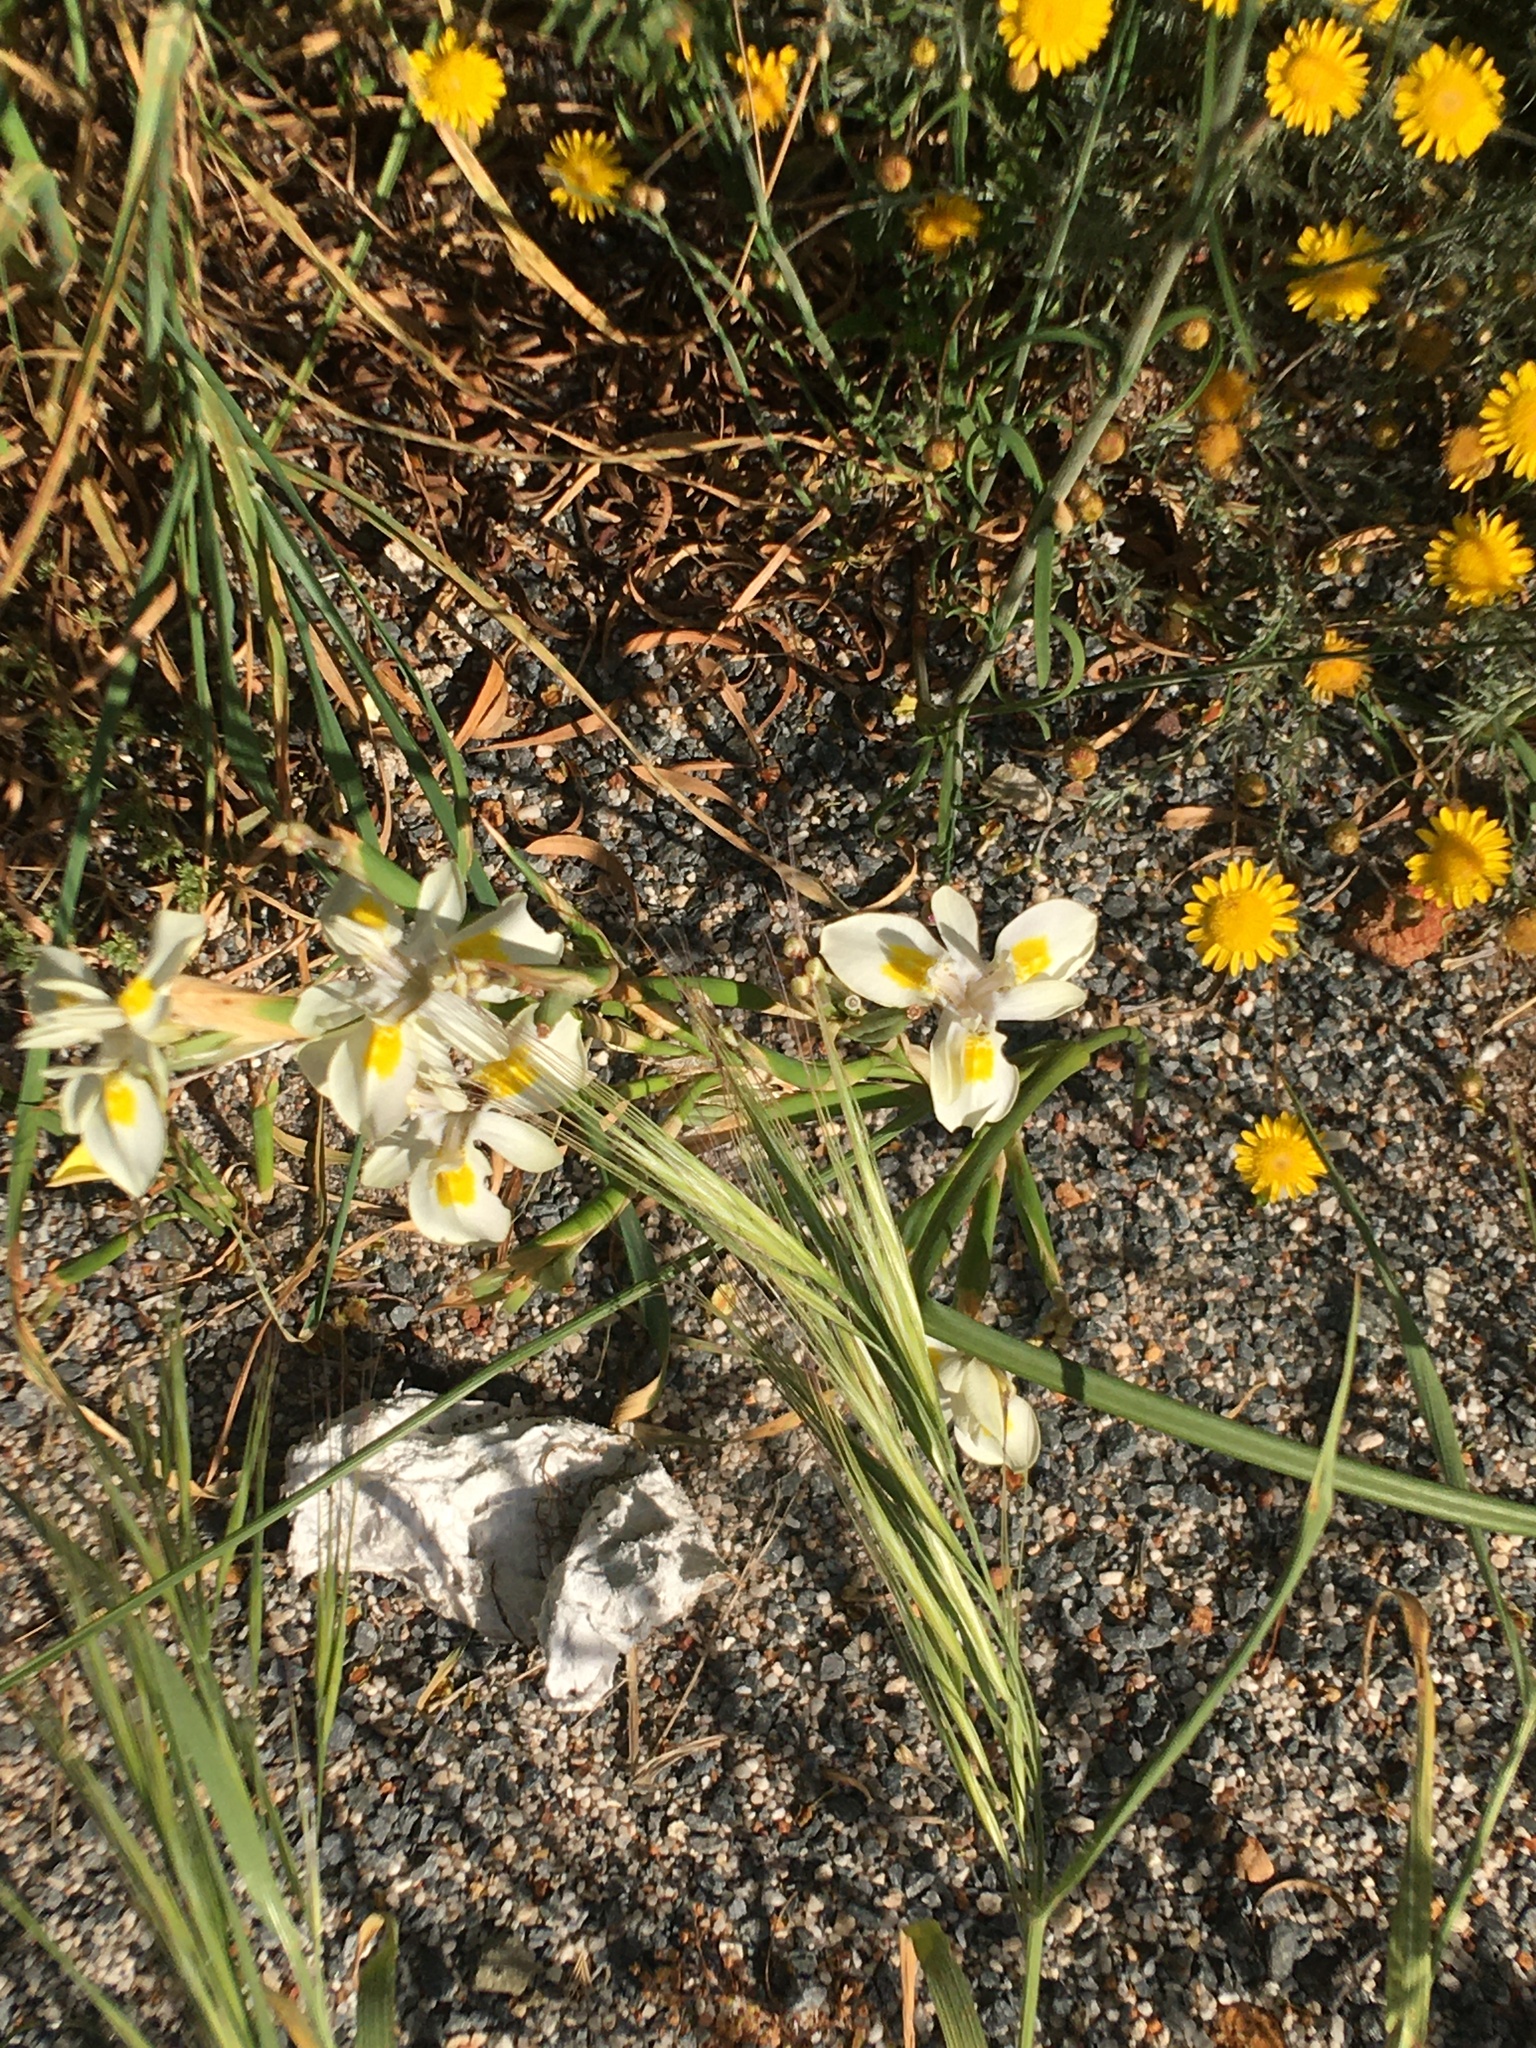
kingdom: Plantae
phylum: Tracheophyta
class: Liliopsida
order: Asparagales
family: Iridaceae
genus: Moraea
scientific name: Moraea fugax
